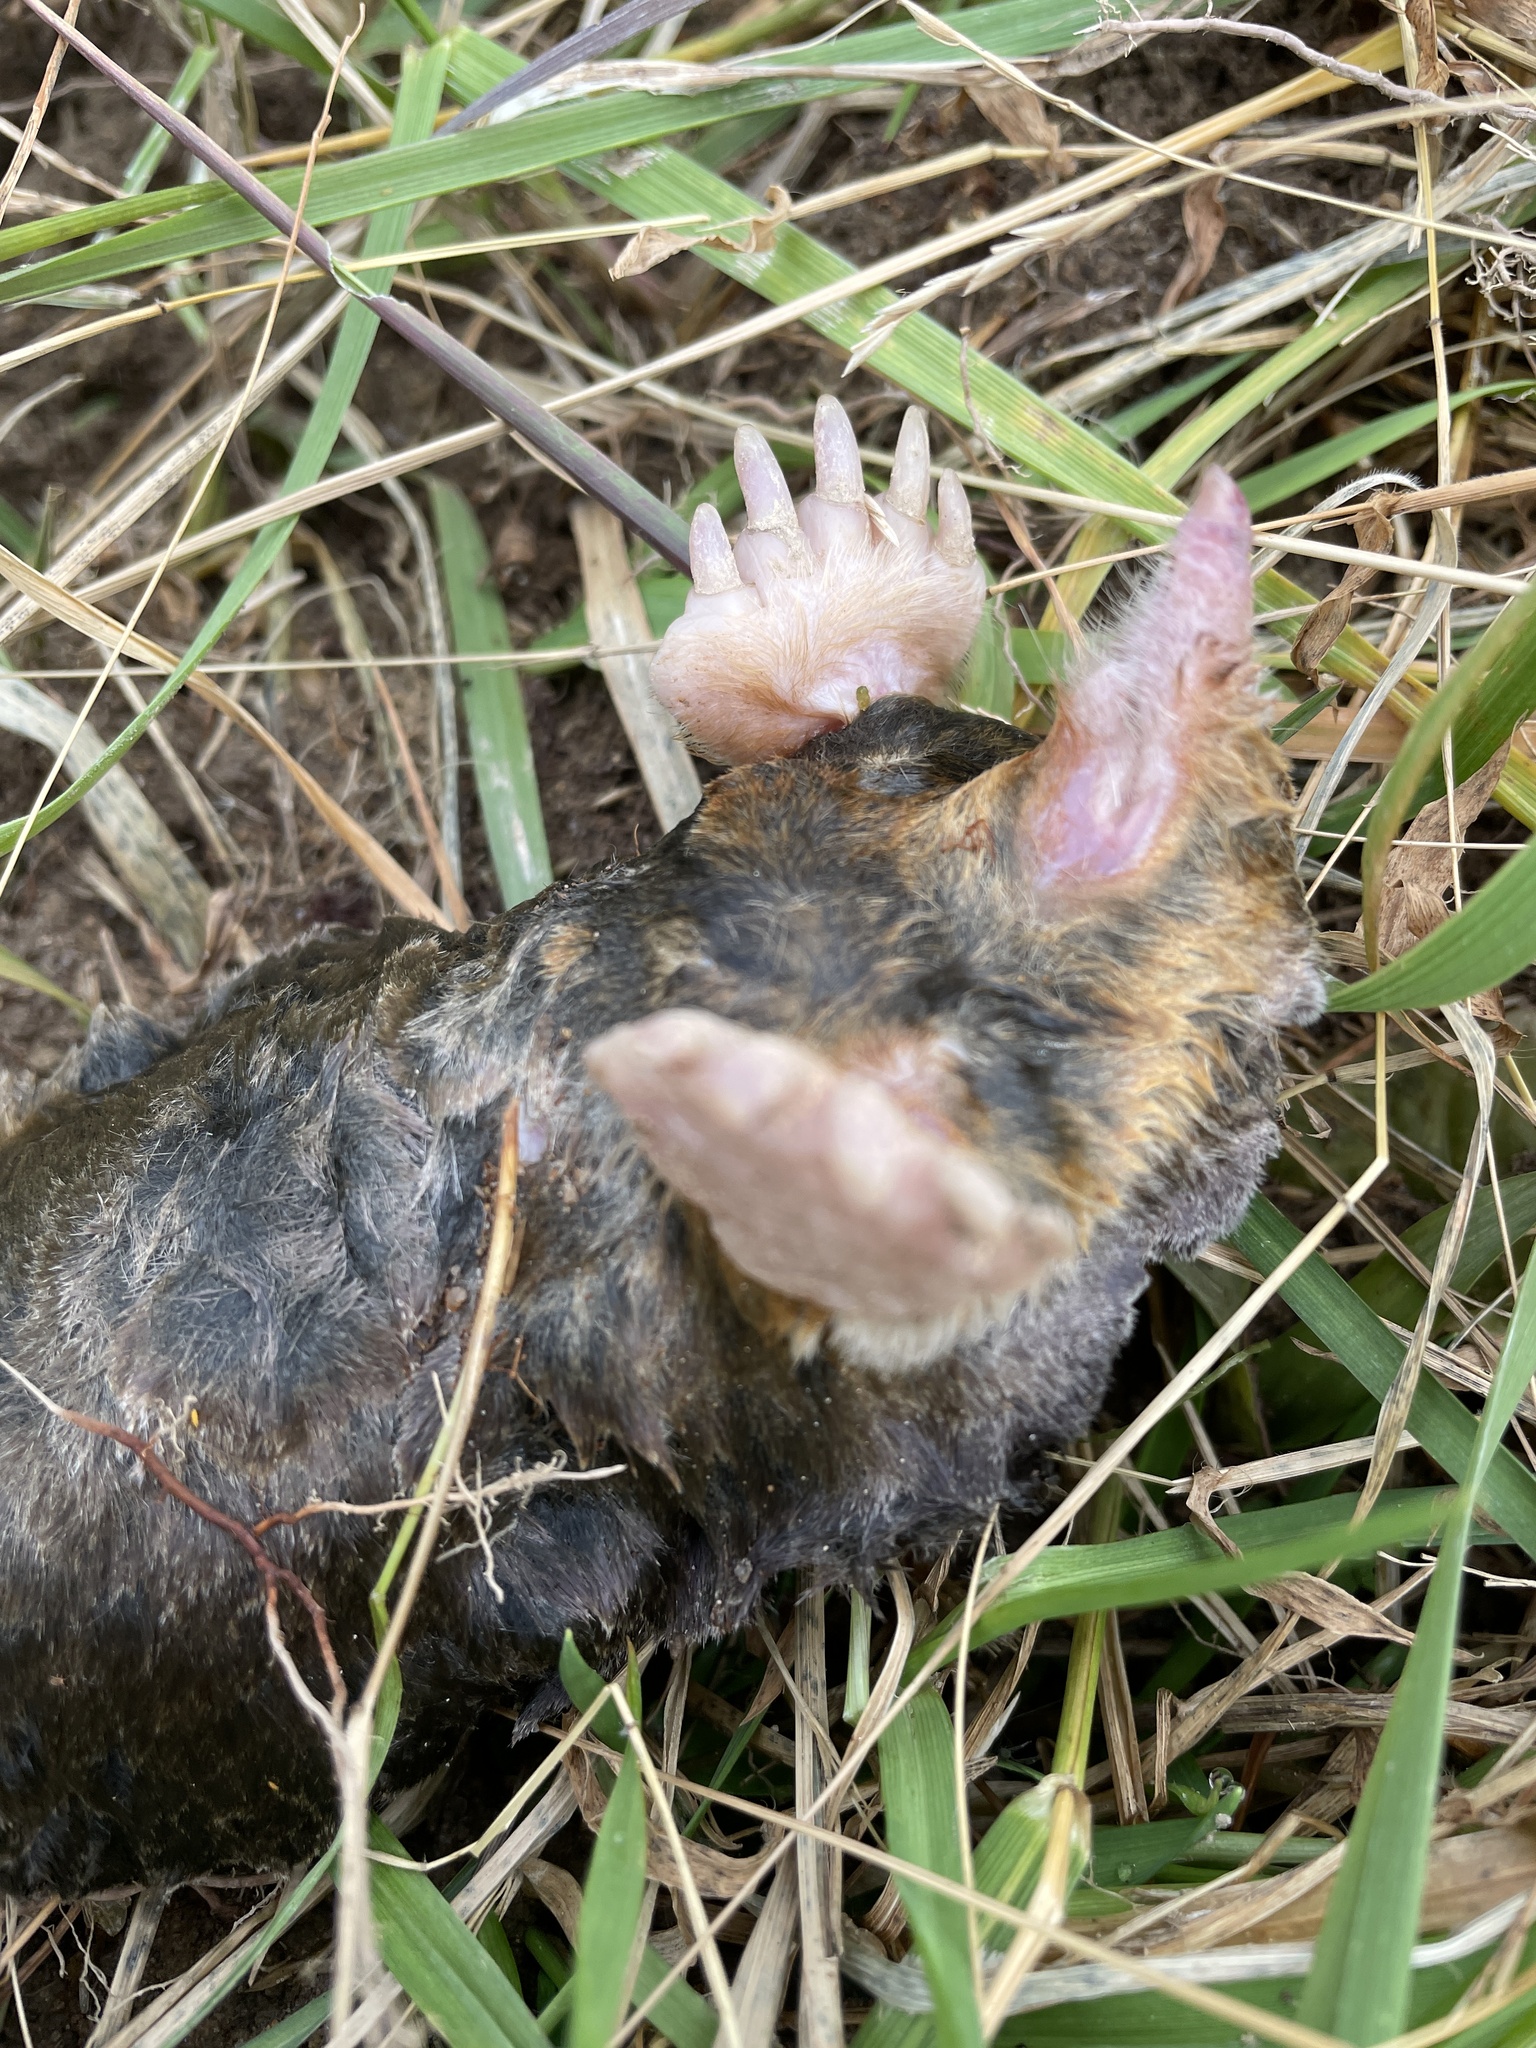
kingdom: Animalia
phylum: Chordata
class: Mammalia
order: Soricomorpha
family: Talpidae
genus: Scalopus
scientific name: Scalopus aquaticus
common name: Eastern mole
